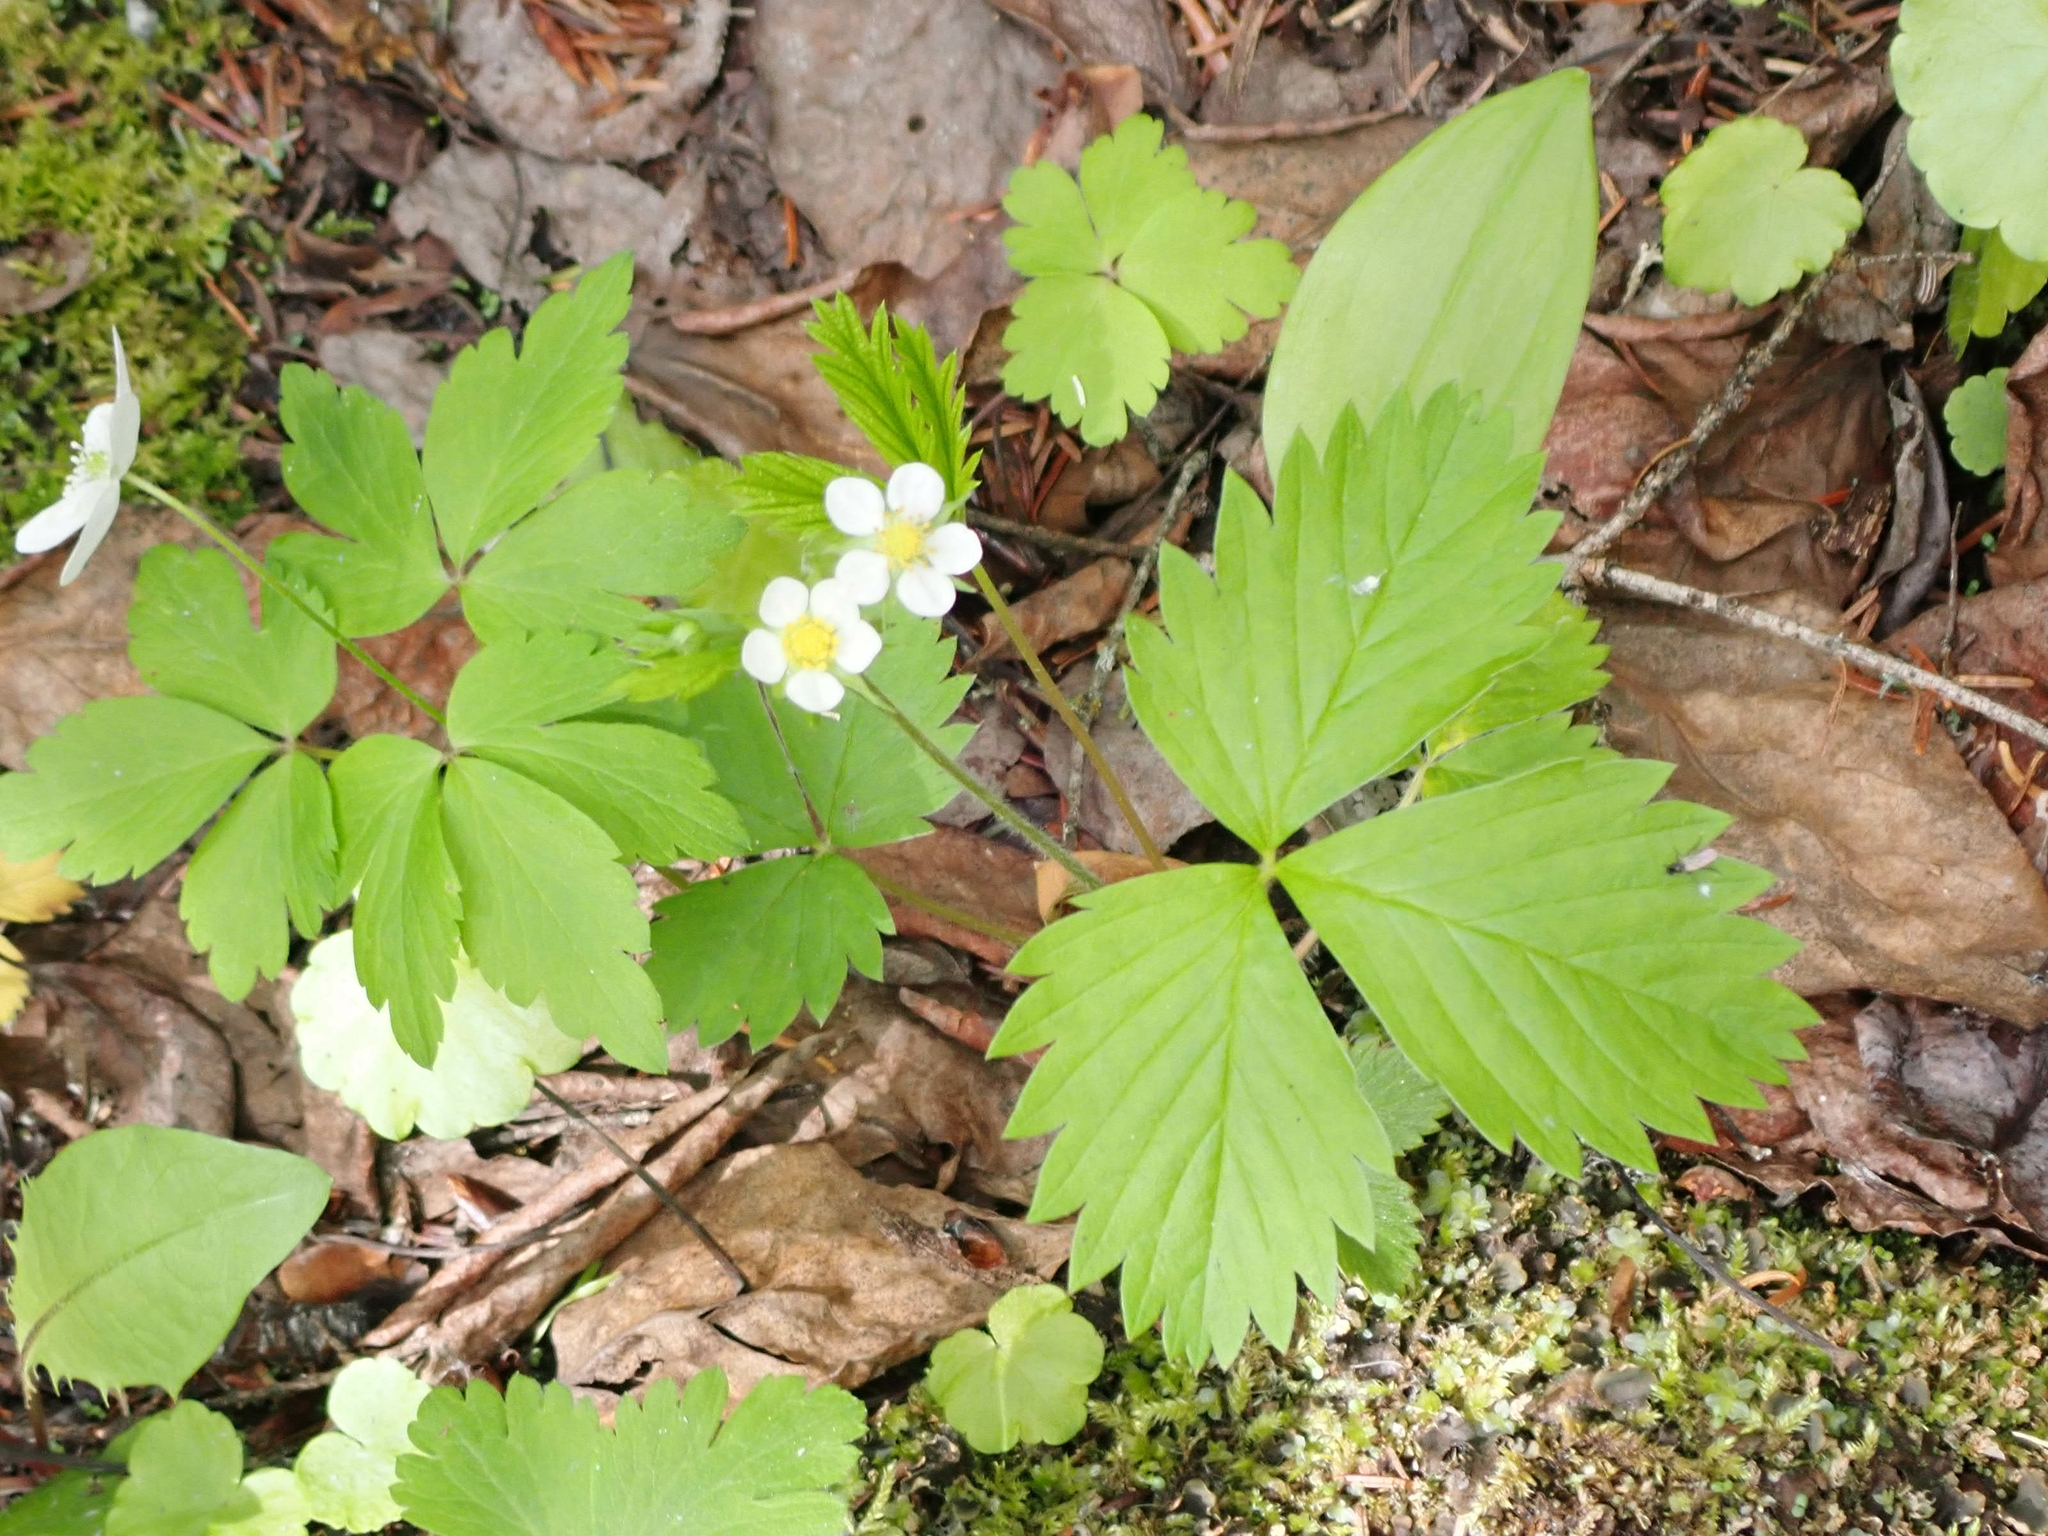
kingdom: Plantae
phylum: Tracheophyta
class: Magnoliopsida
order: Rosales
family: Rosaceae
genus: Fragaria
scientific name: Fragaria vesca
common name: Wild strawberry
